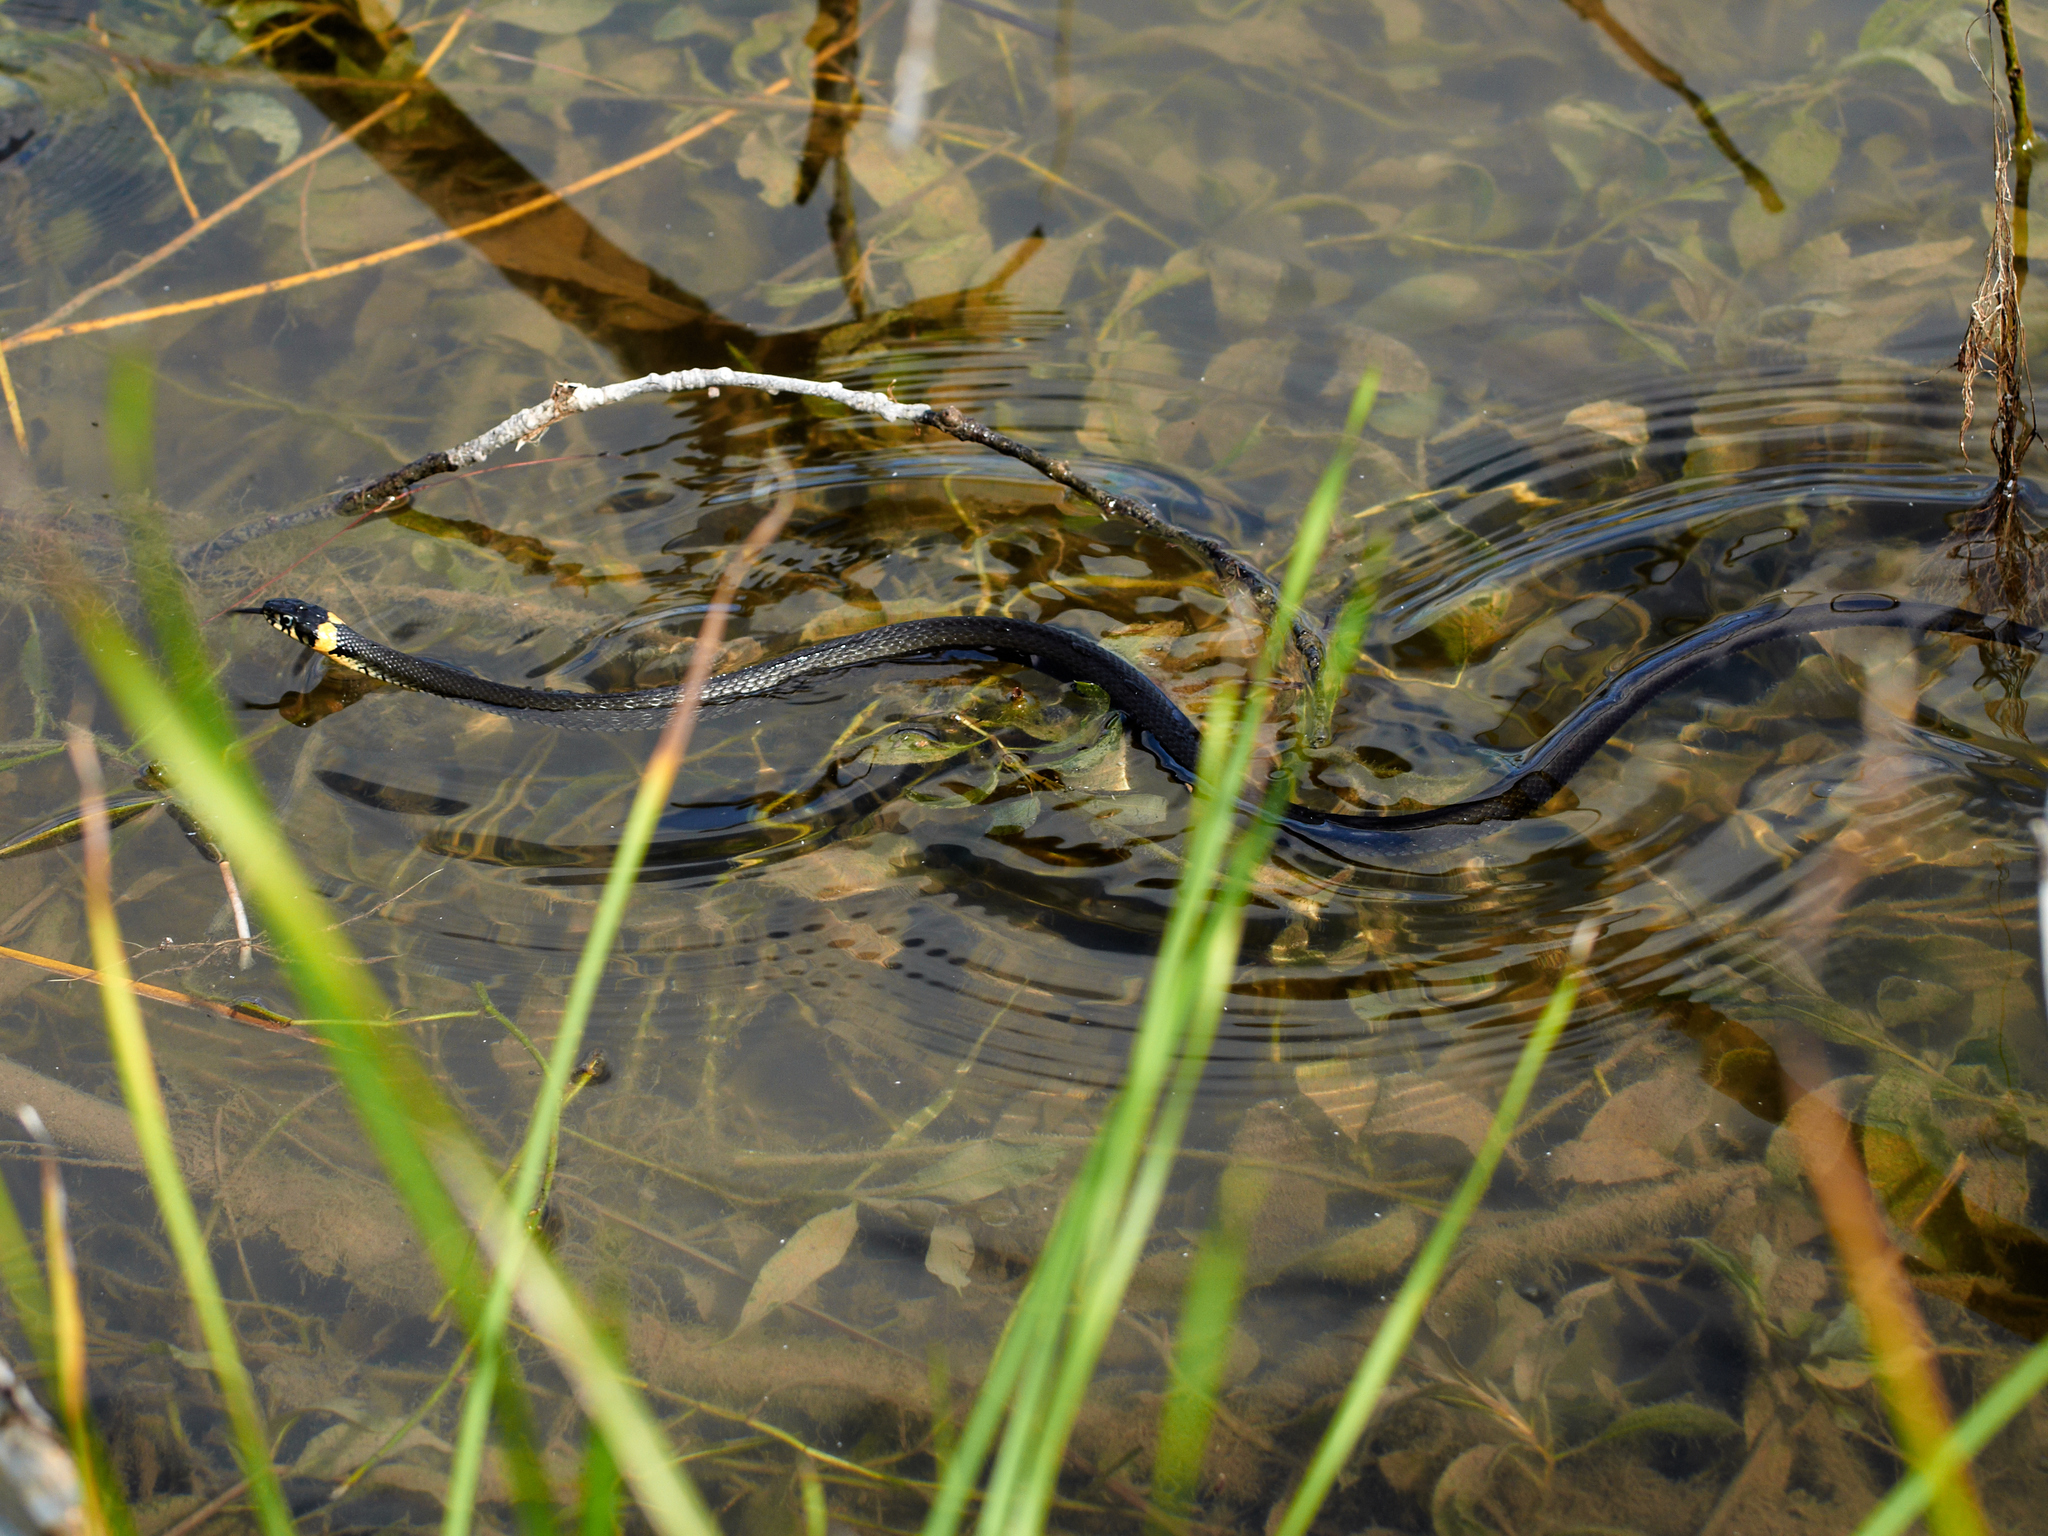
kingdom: Animalia
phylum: Chordata
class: Squamata
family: Colubridae
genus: Natrix
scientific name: Natrix natrix
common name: Grass snake
